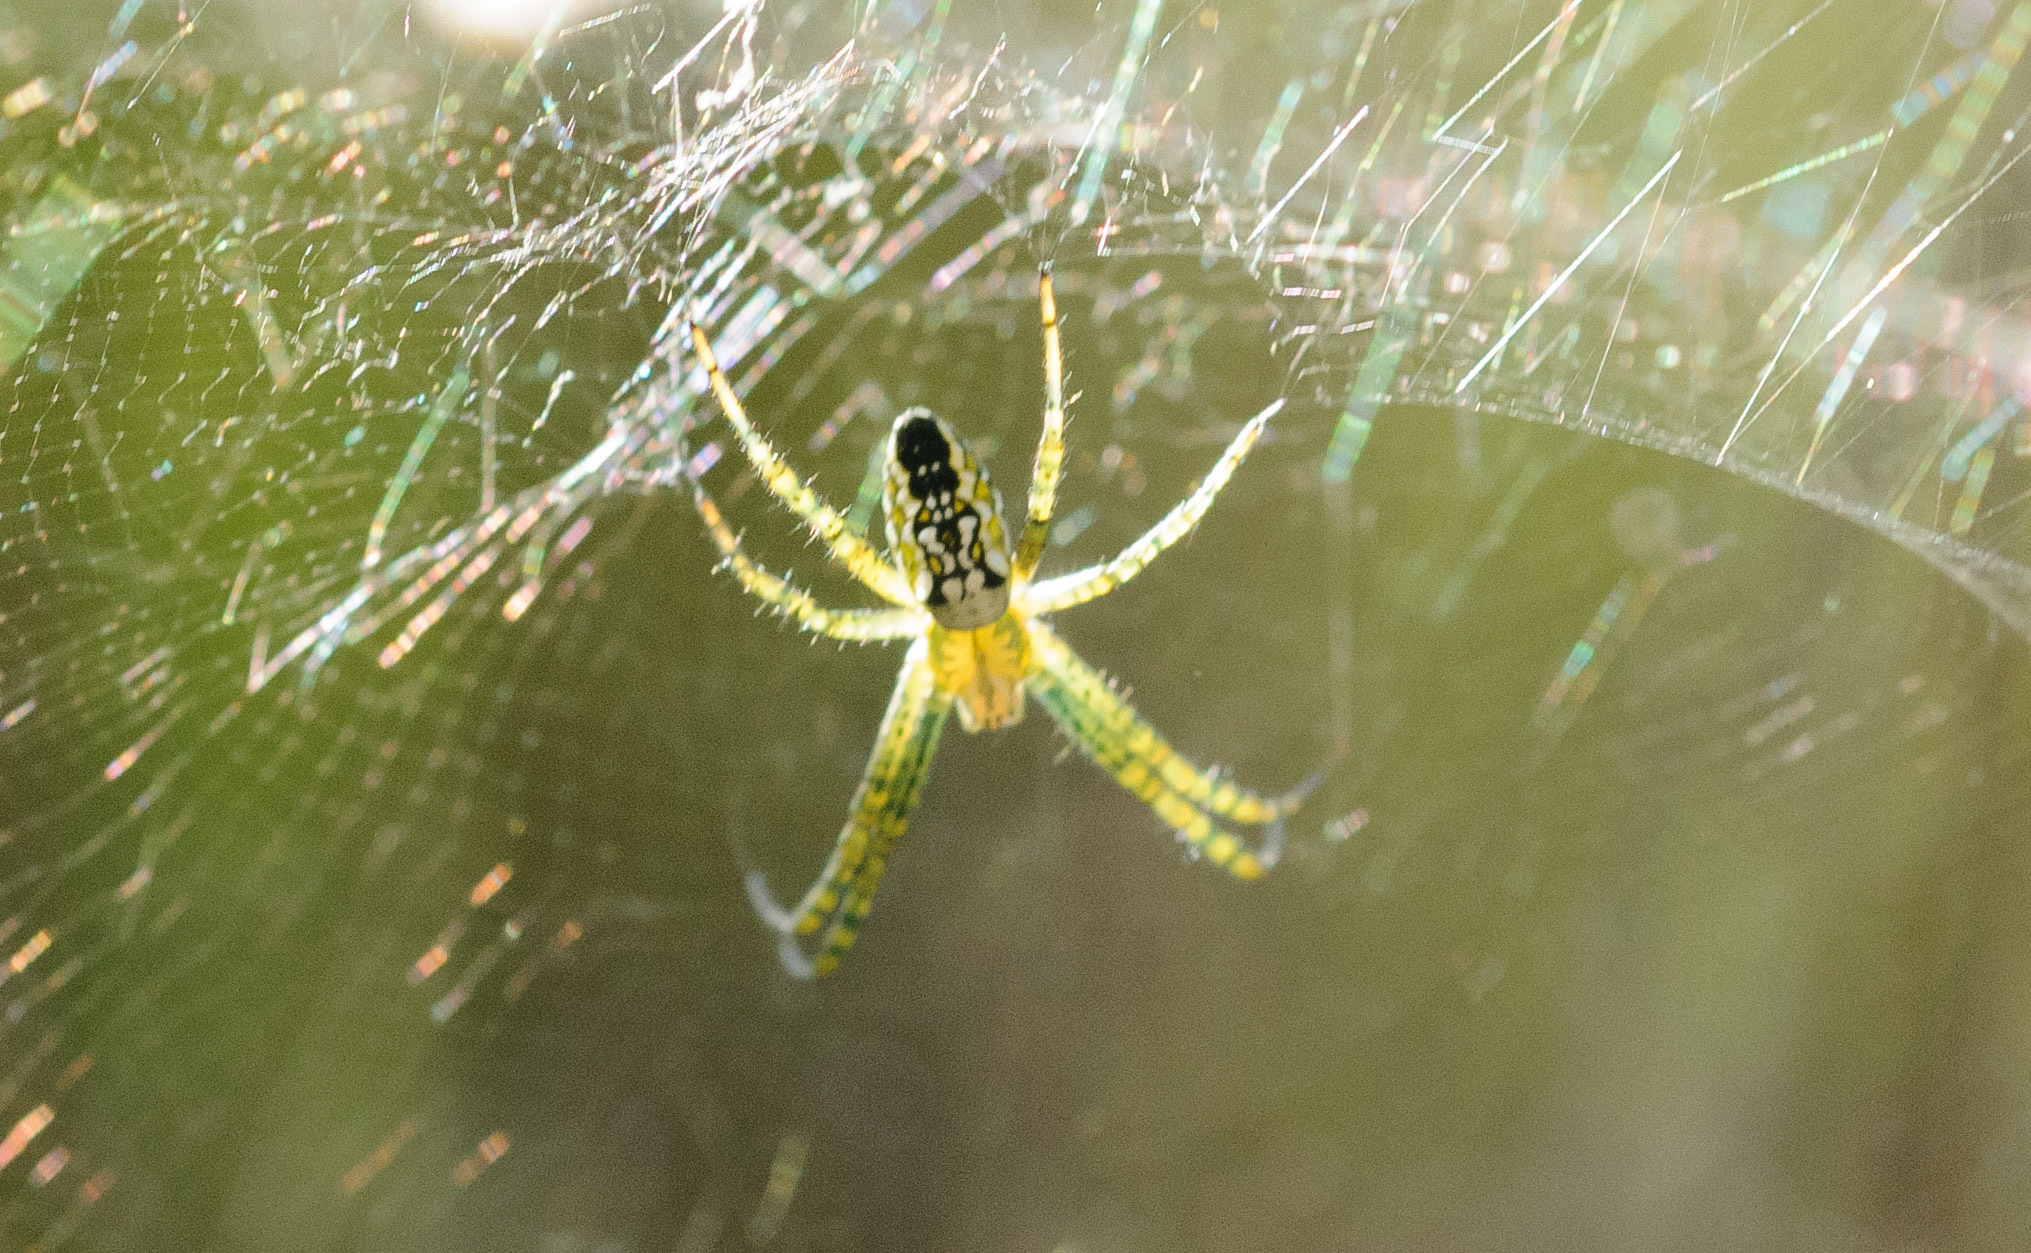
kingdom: Chromista
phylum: Ochrophyta
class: Dictyochophyceae
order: Pedinellales
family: Cyrtophoraceae
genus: Cyrtophora
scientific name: Cyrtophora moluccensis
